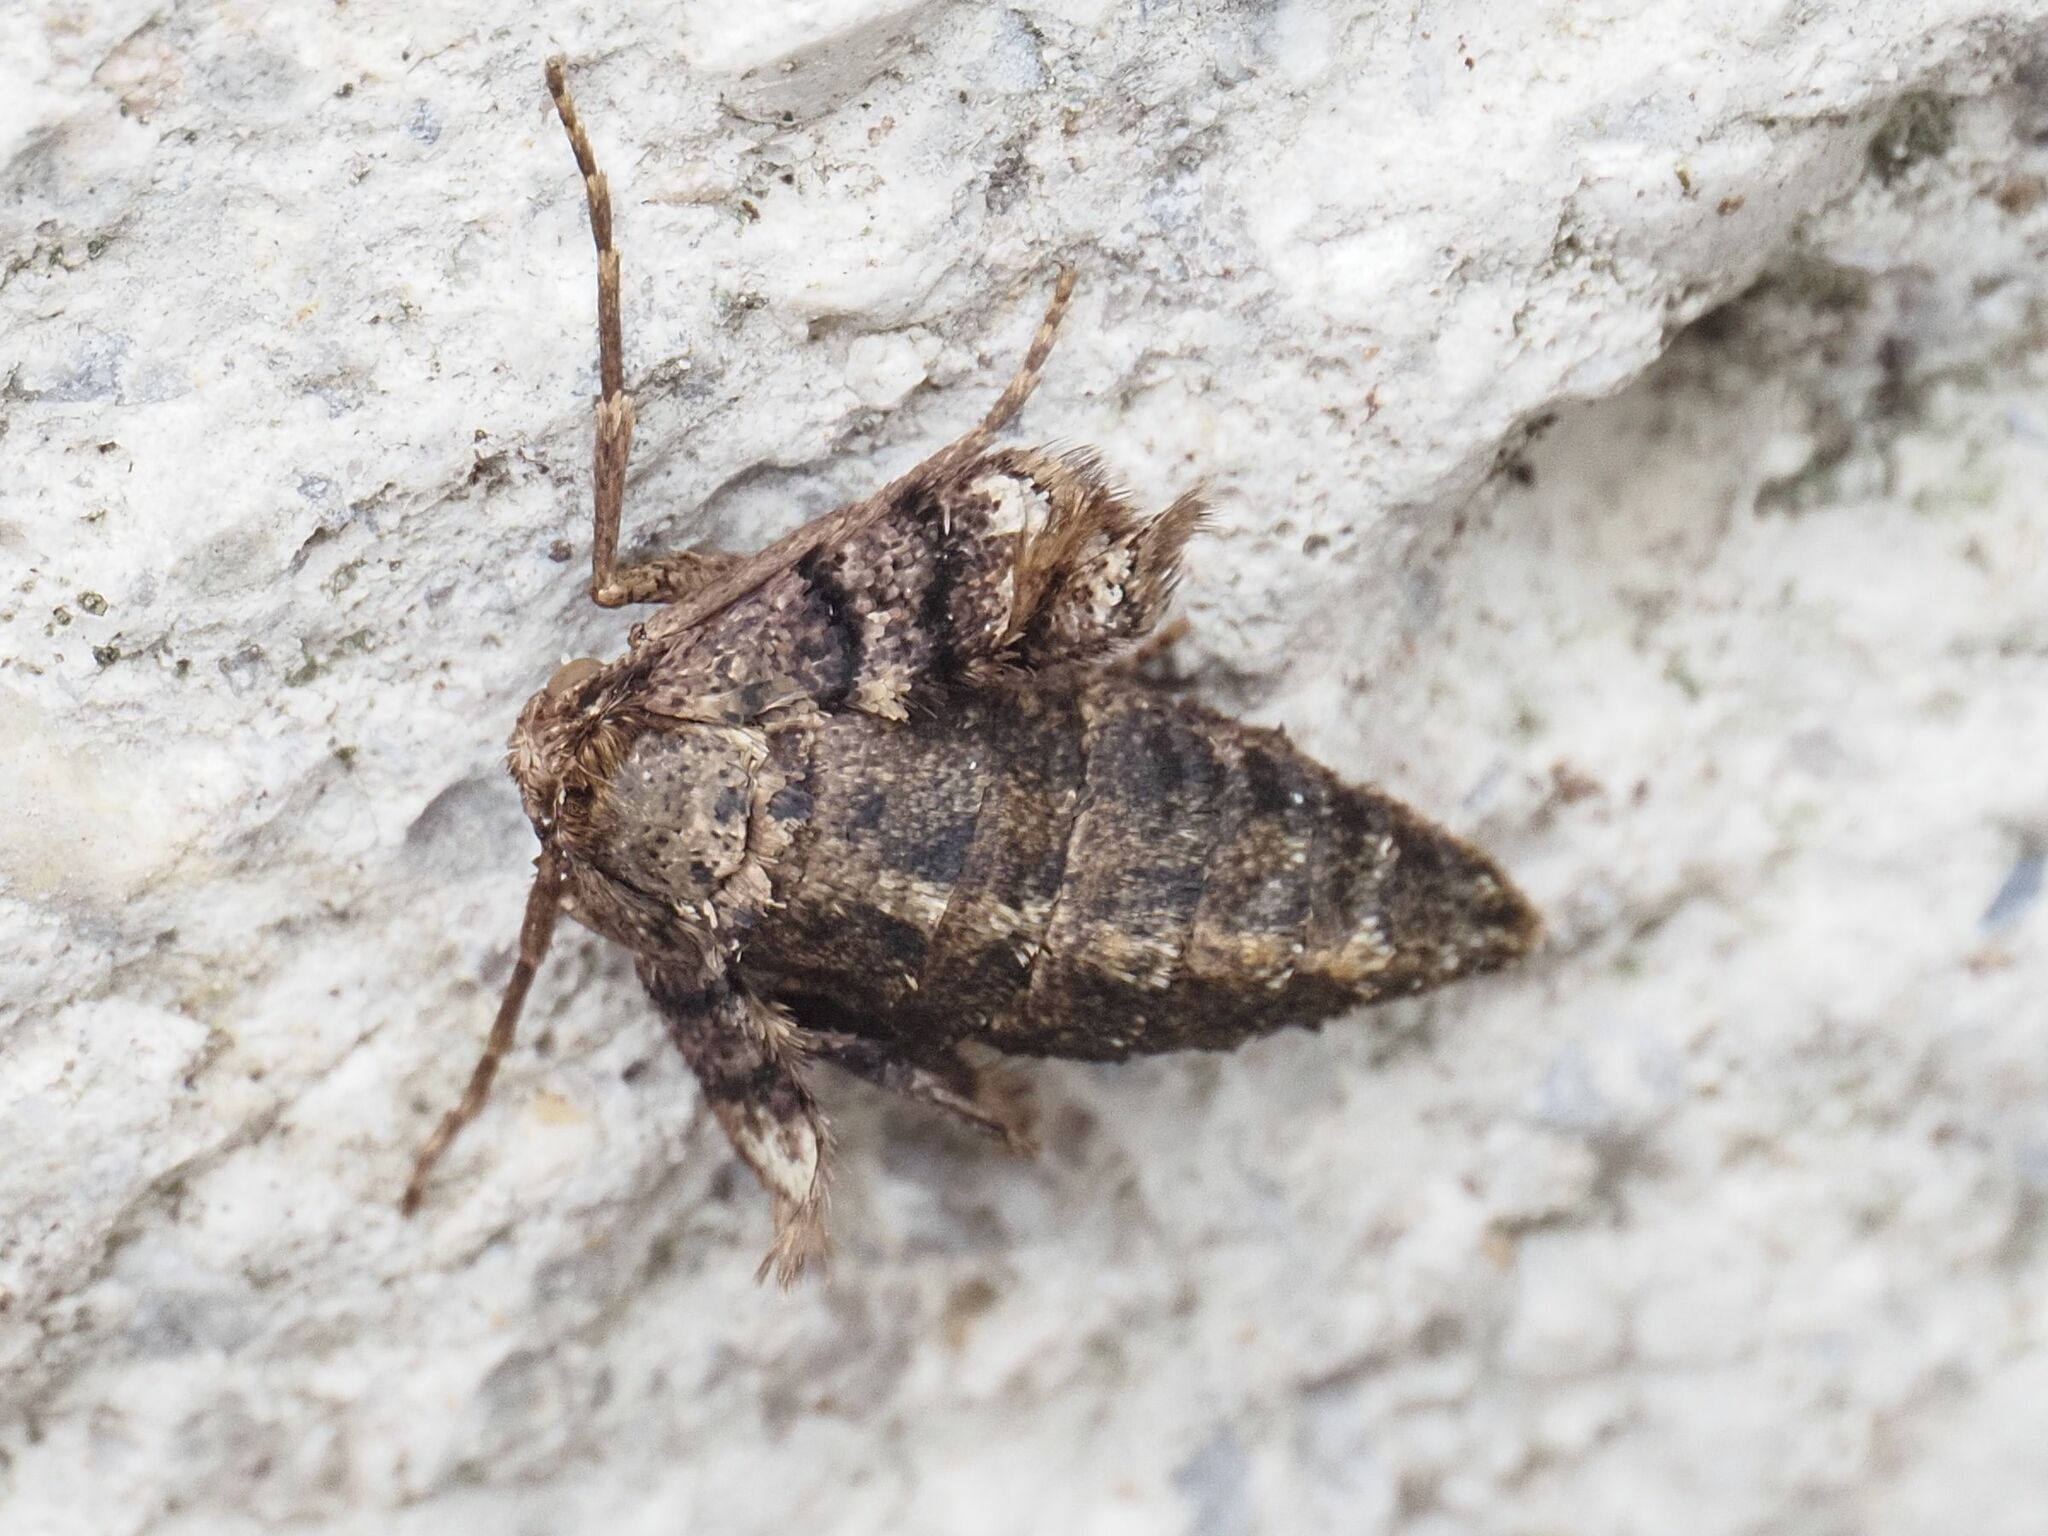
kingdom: Animalia
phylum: Arthropoda
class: Insecta
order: Lepidoptera
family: Geometridae
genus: Agriopis
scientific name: Agriopis marginaria
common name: Dotted border
